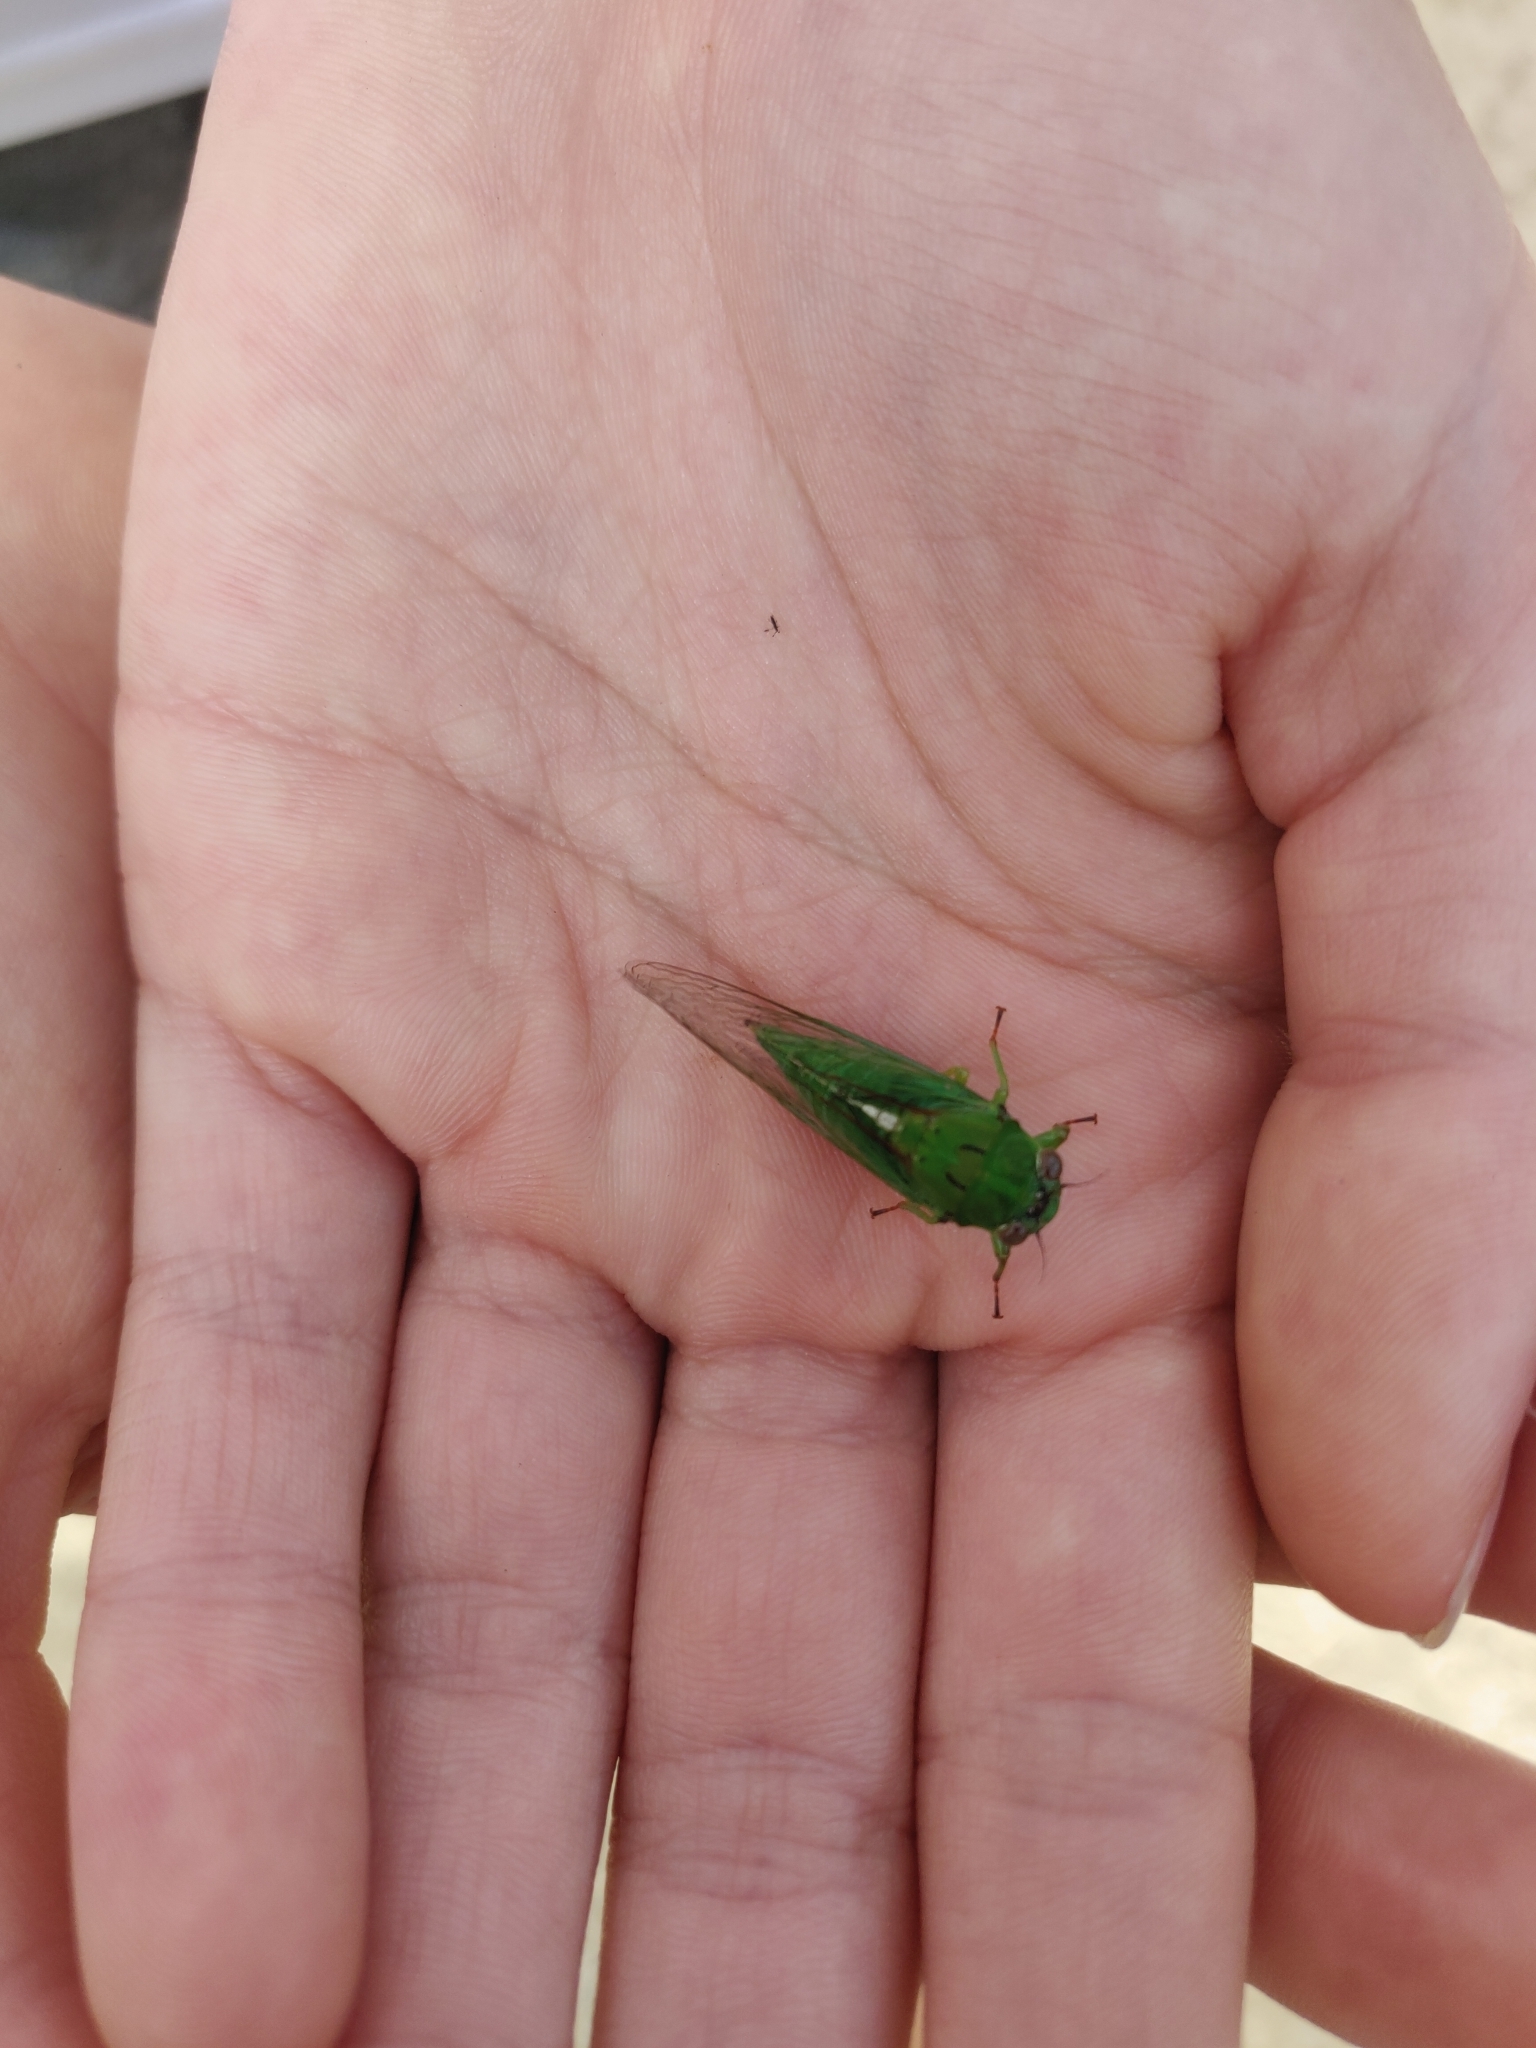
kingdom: Animalia
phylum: Arthropoda
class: Insecta
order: Hemiptera
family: Cicadidae
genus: Kikihia
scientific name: Kikihia ochrina
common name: April green cicada
